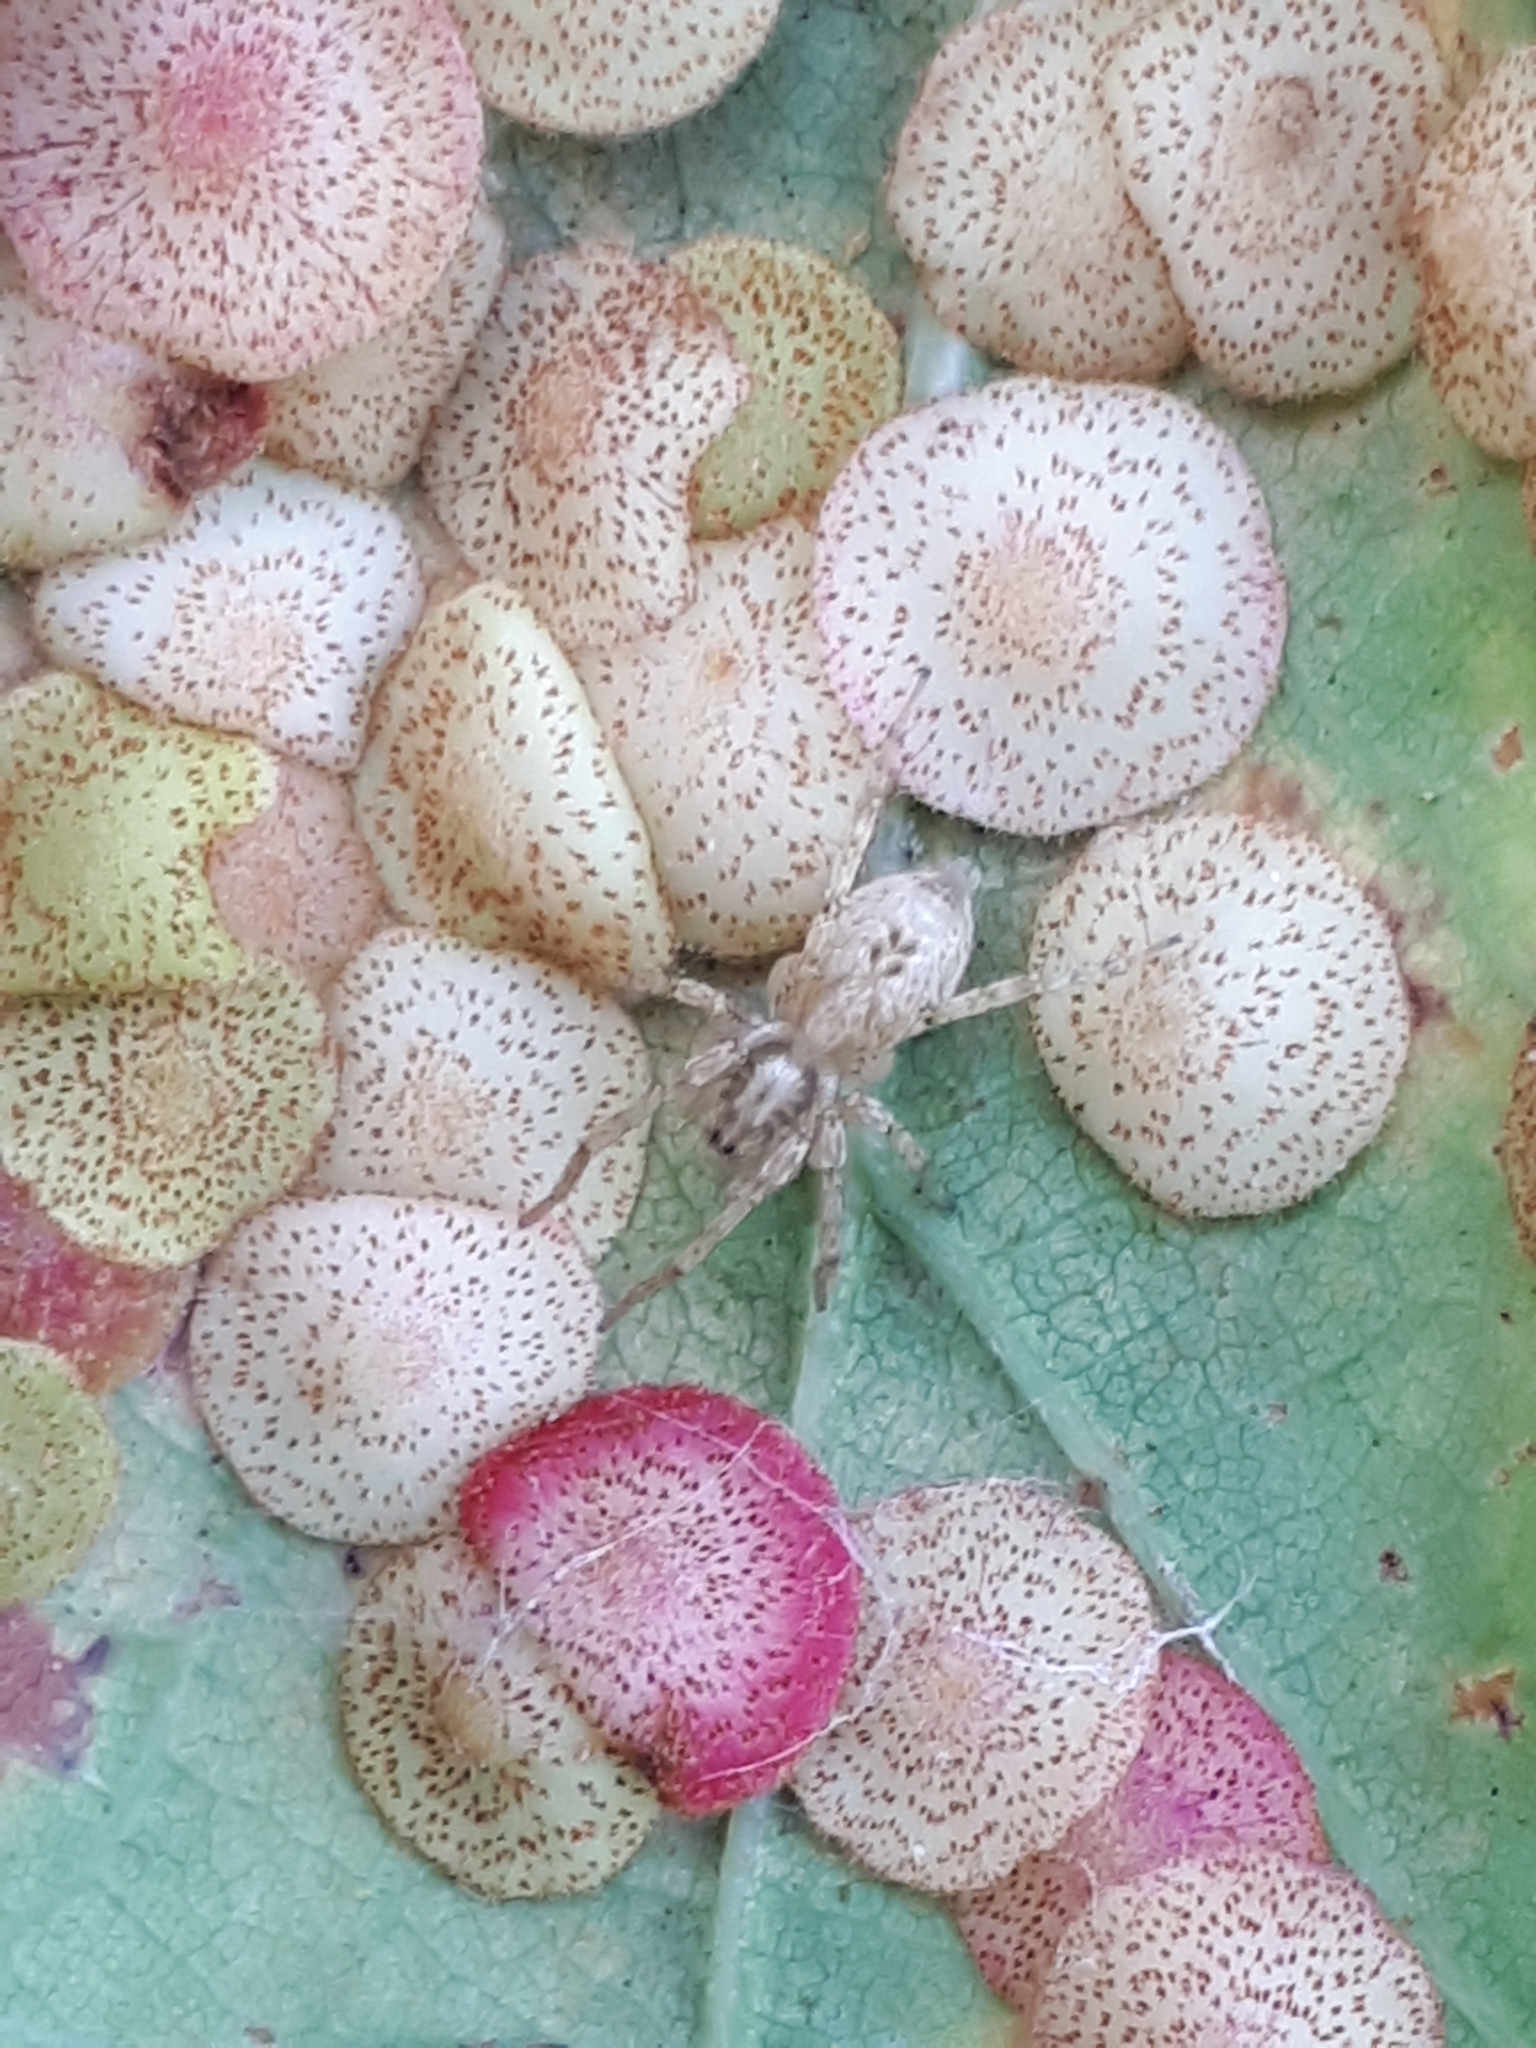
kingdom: Animalia
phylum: Arthropoda
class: Arachnida
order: Araneae
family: Anyphaenidae
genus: Anyphaena
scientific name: Anyphaena accentuata
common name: Buzzing spider
